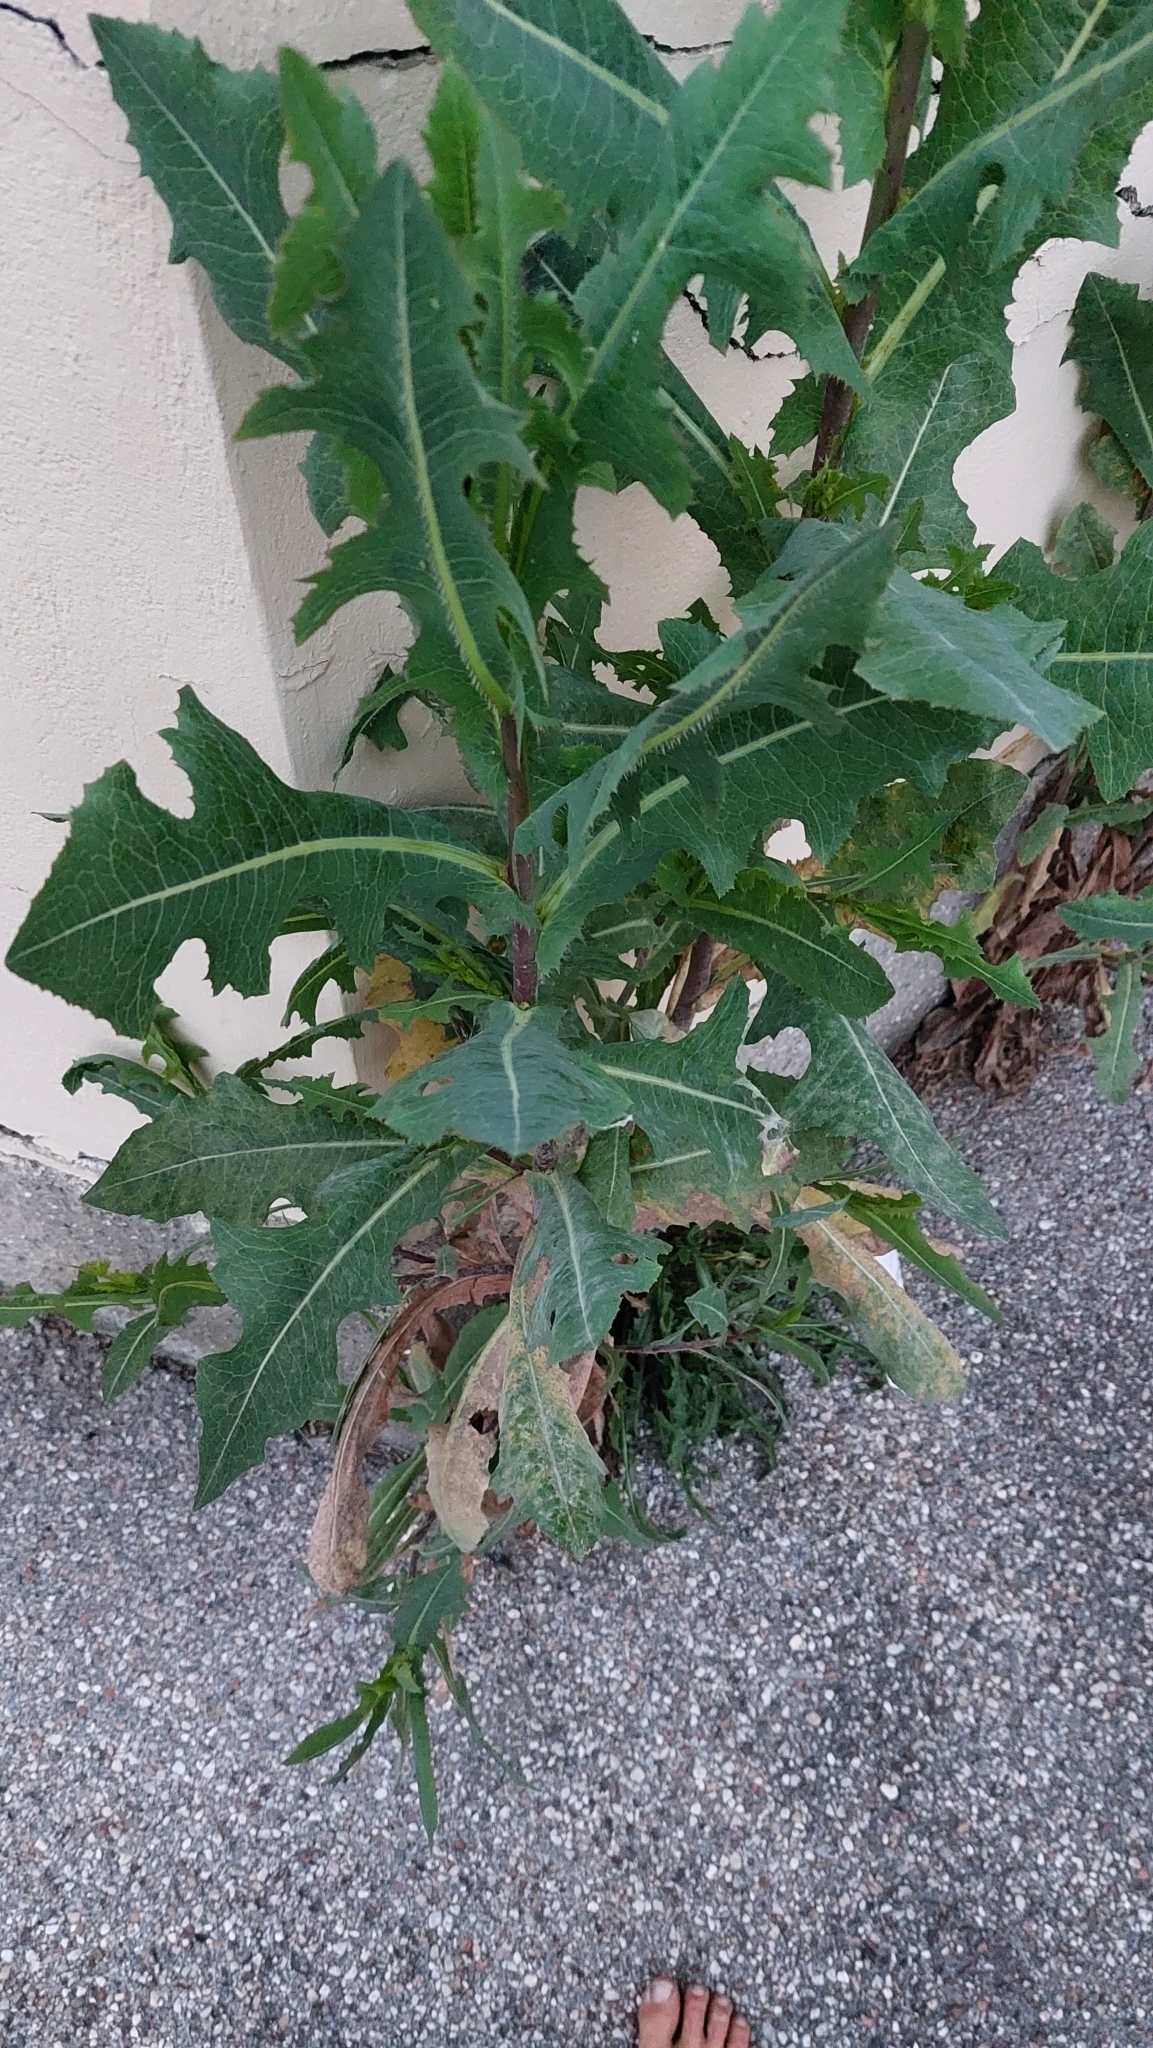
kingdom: Plantae
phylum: Tracheophyta
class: Magnoliopsida
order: Asterales
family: Asteraceae
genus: Lactuca
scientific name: Lactuca serriola
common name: Prickly lettuce
